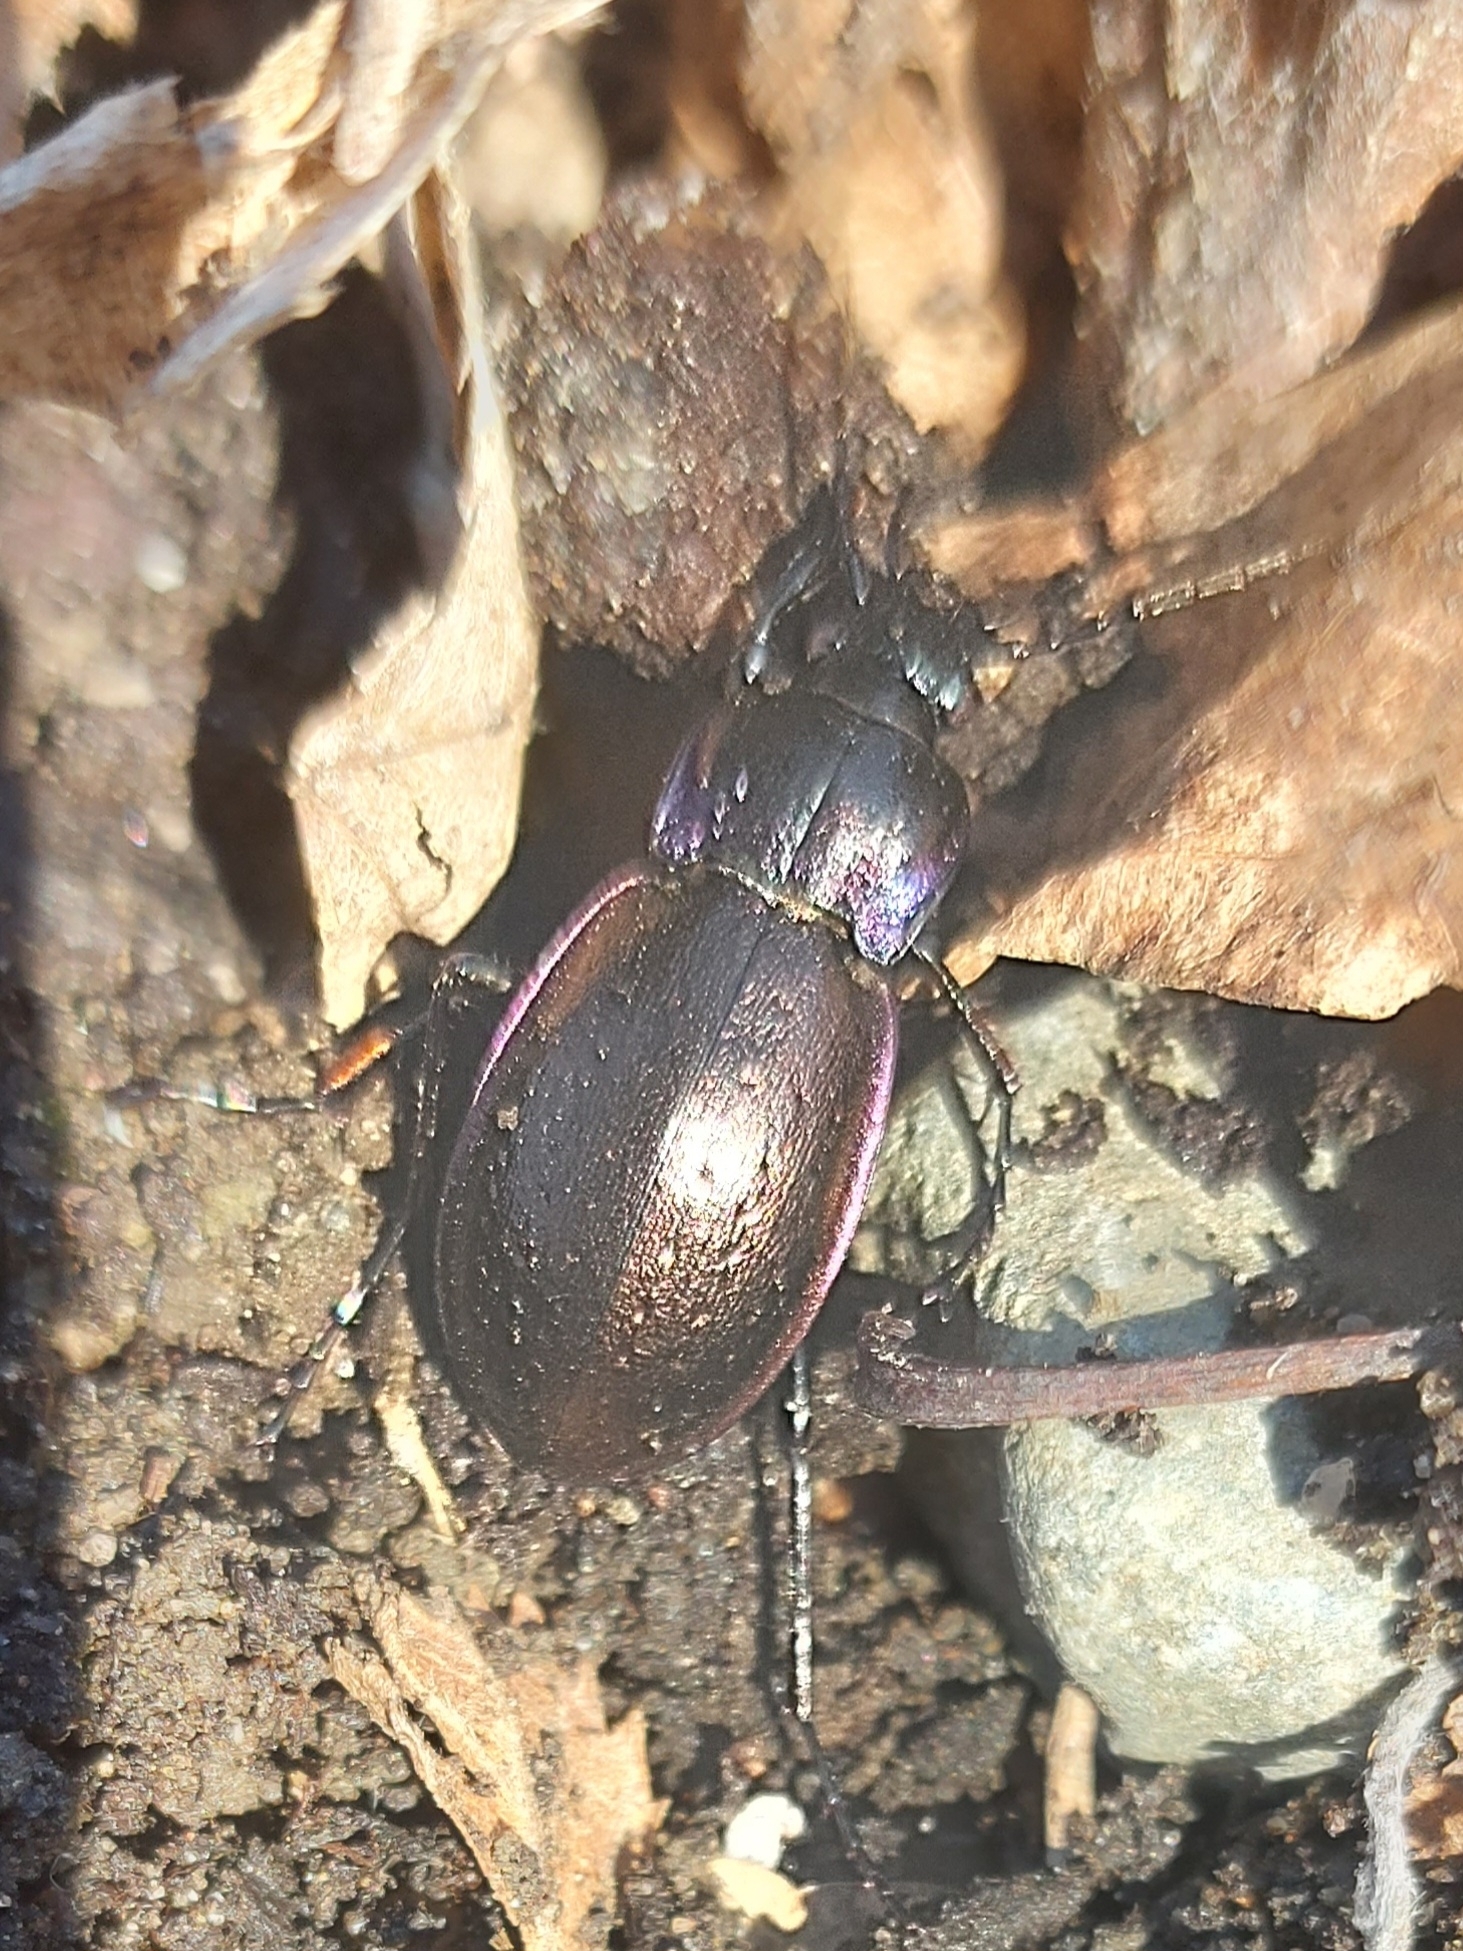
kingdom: Animalia
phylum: Arthropoda
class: Insecta
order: Coleoptera
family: Carabidae
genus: Carabus
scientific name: Carabus nemoralis
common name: European ground beetle
